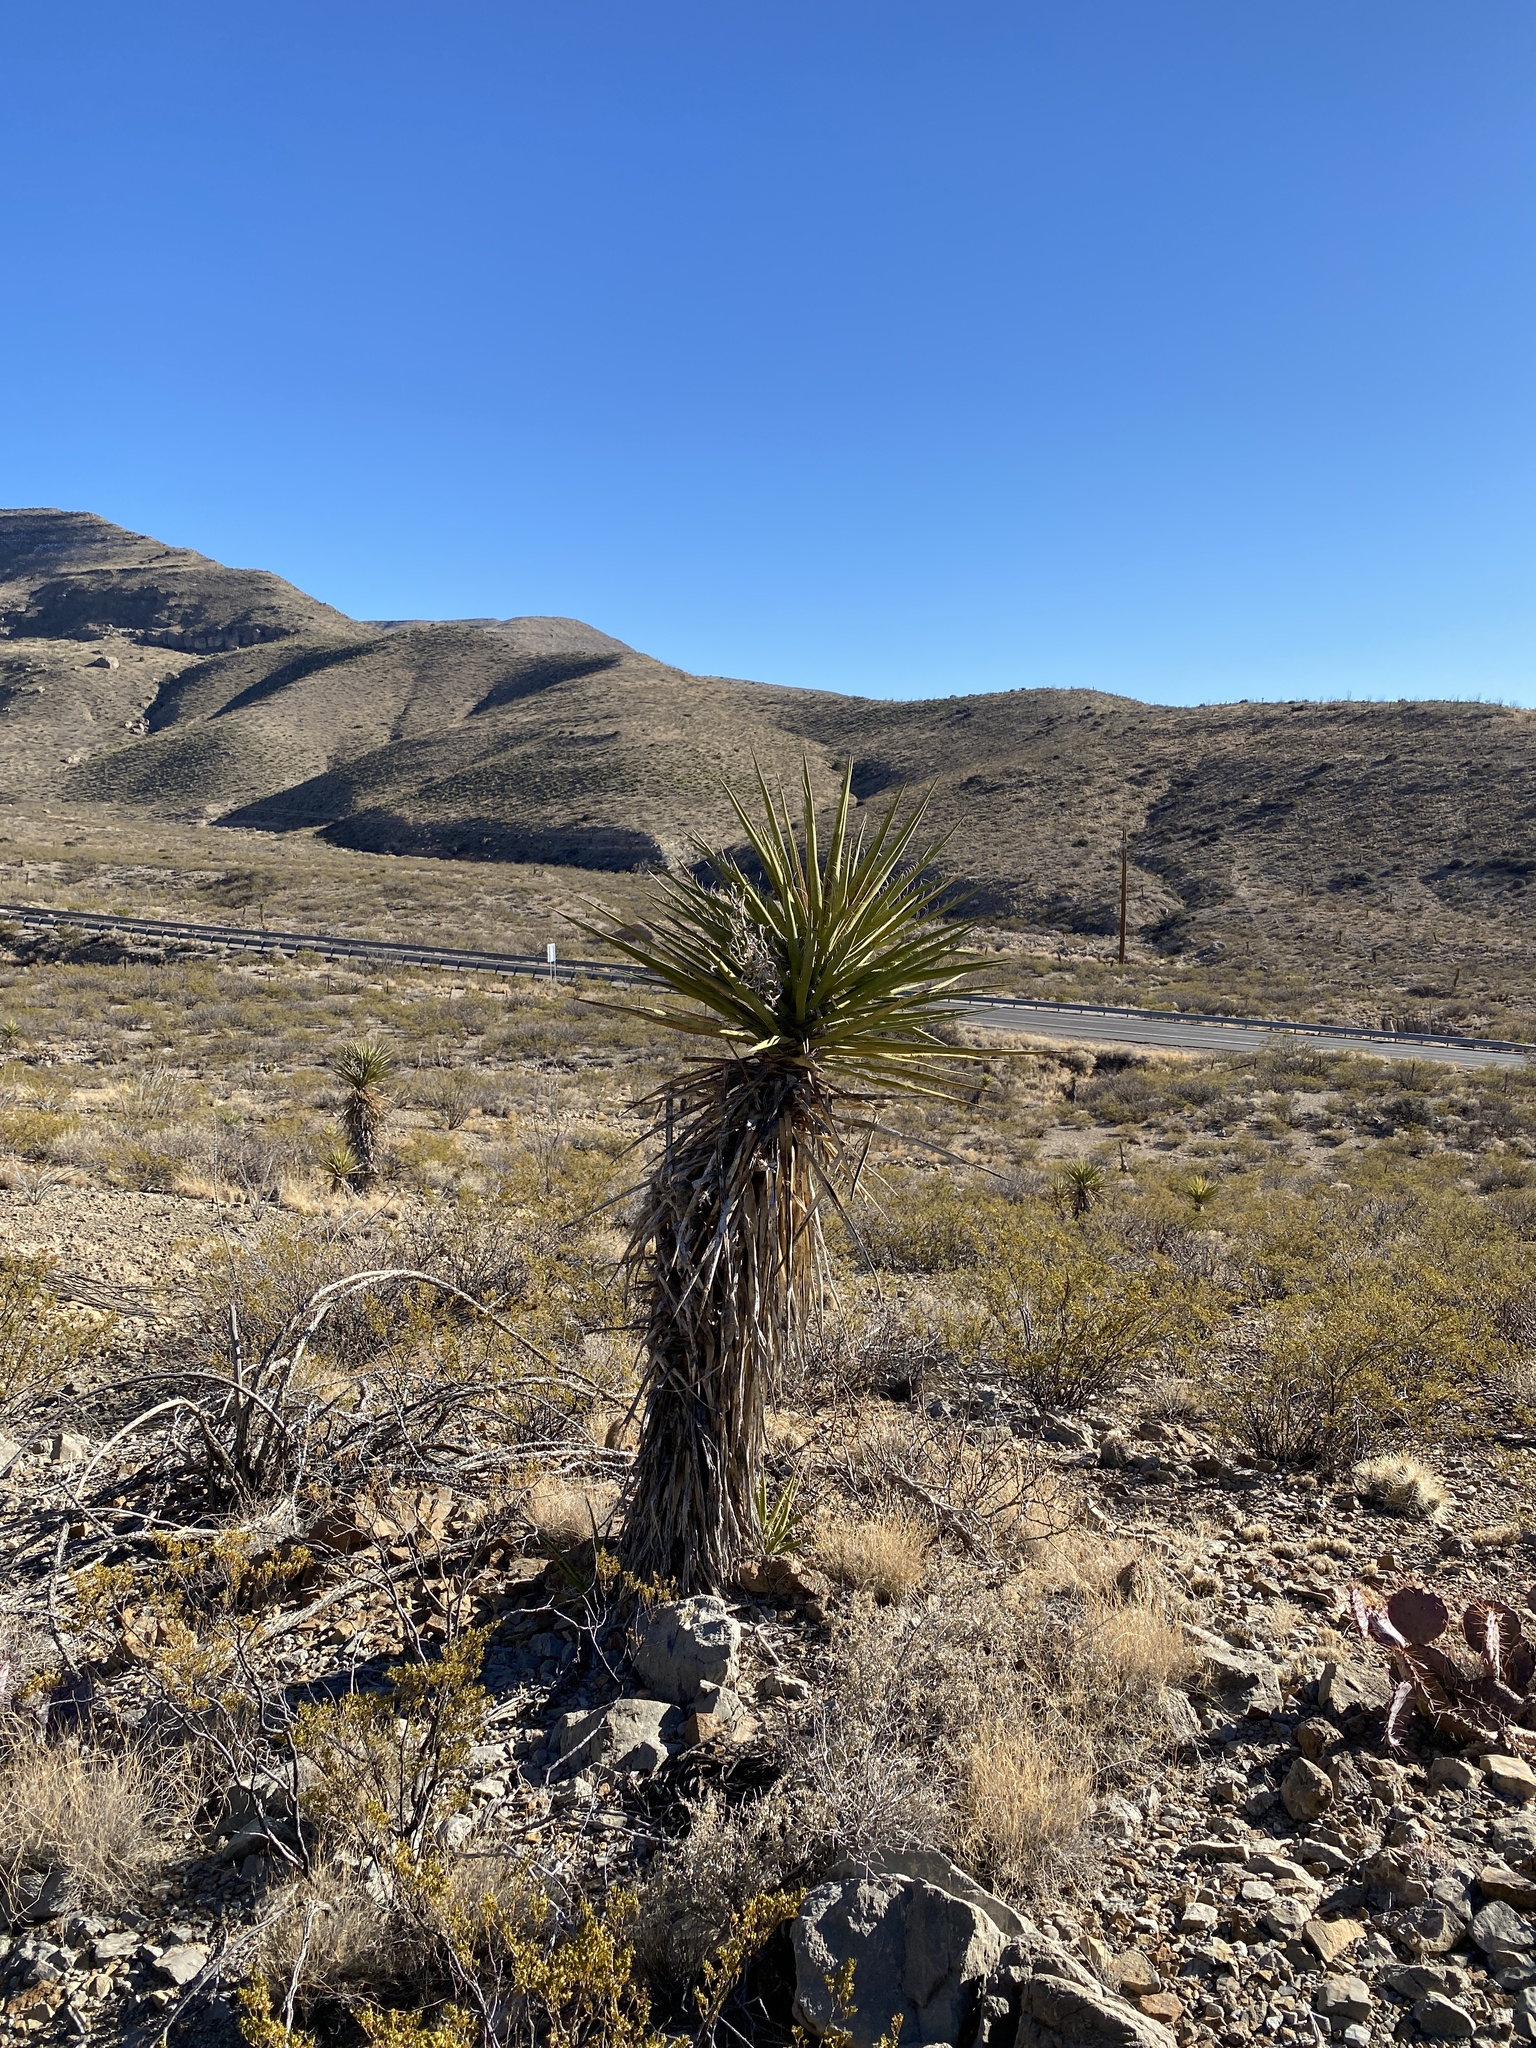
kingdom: Plantae
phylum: Tracheophyta
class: Liliopsida
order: Asparagales
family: Asparagaceae
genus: Yucca
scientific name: Yucca treculiana
